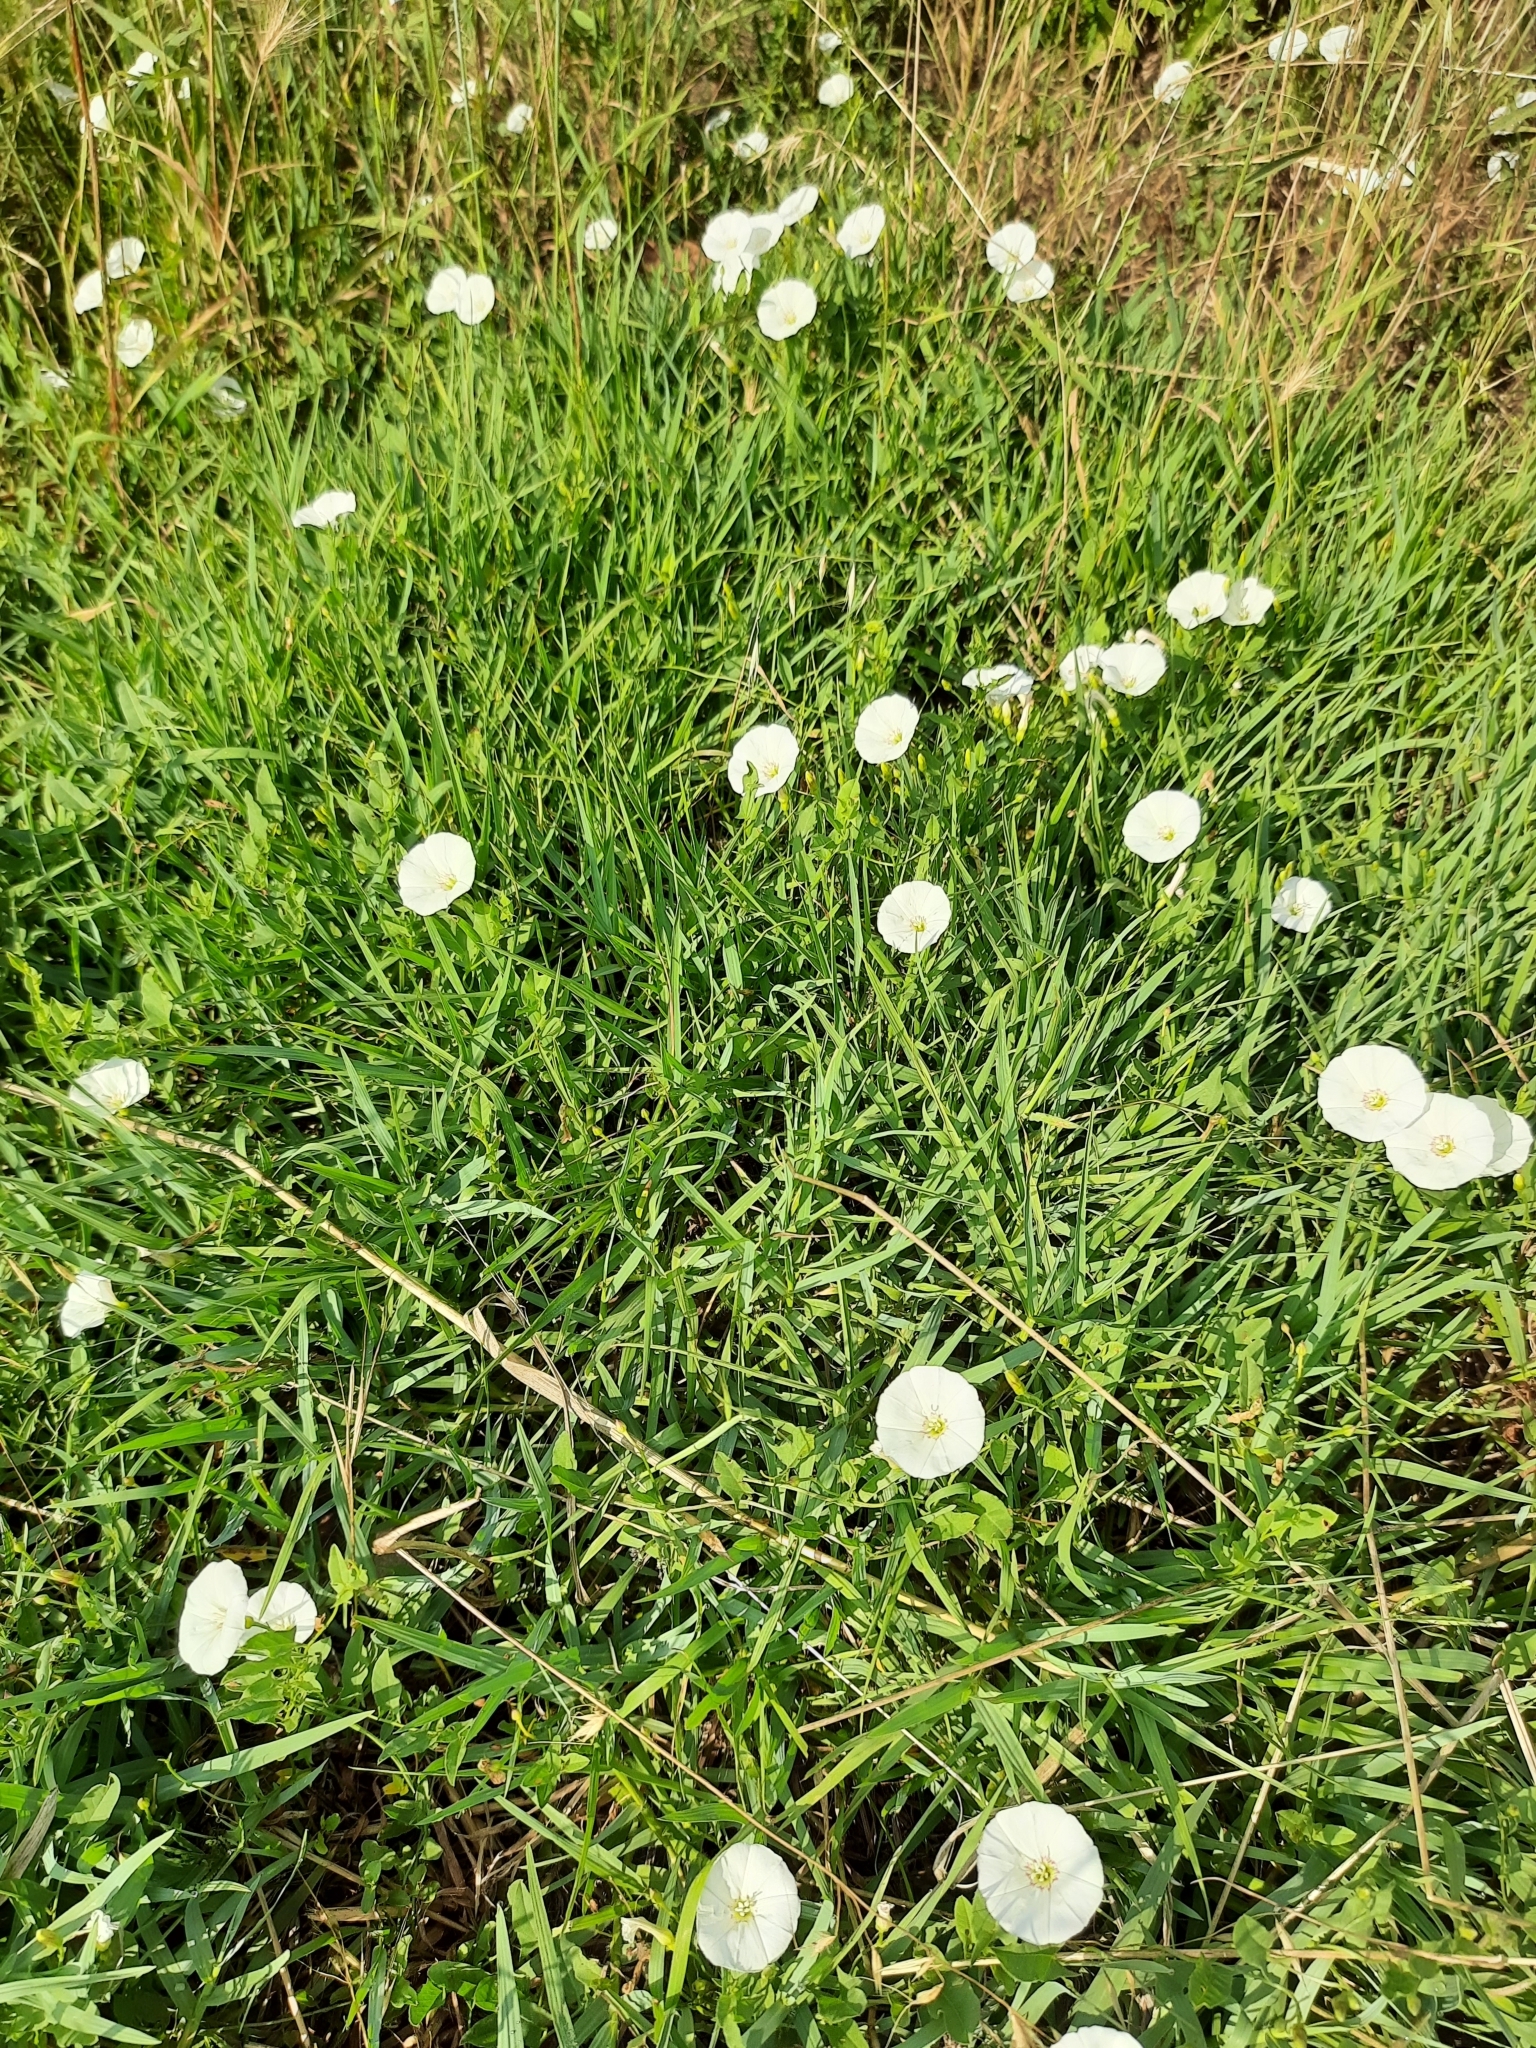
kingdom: Plantae
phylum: Tracheophyta
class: Magnoliopsida
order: Solanales
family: Convolvulaceae
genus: Convolvulus
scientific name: Convolvulus arvensis
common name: Field bindweed
